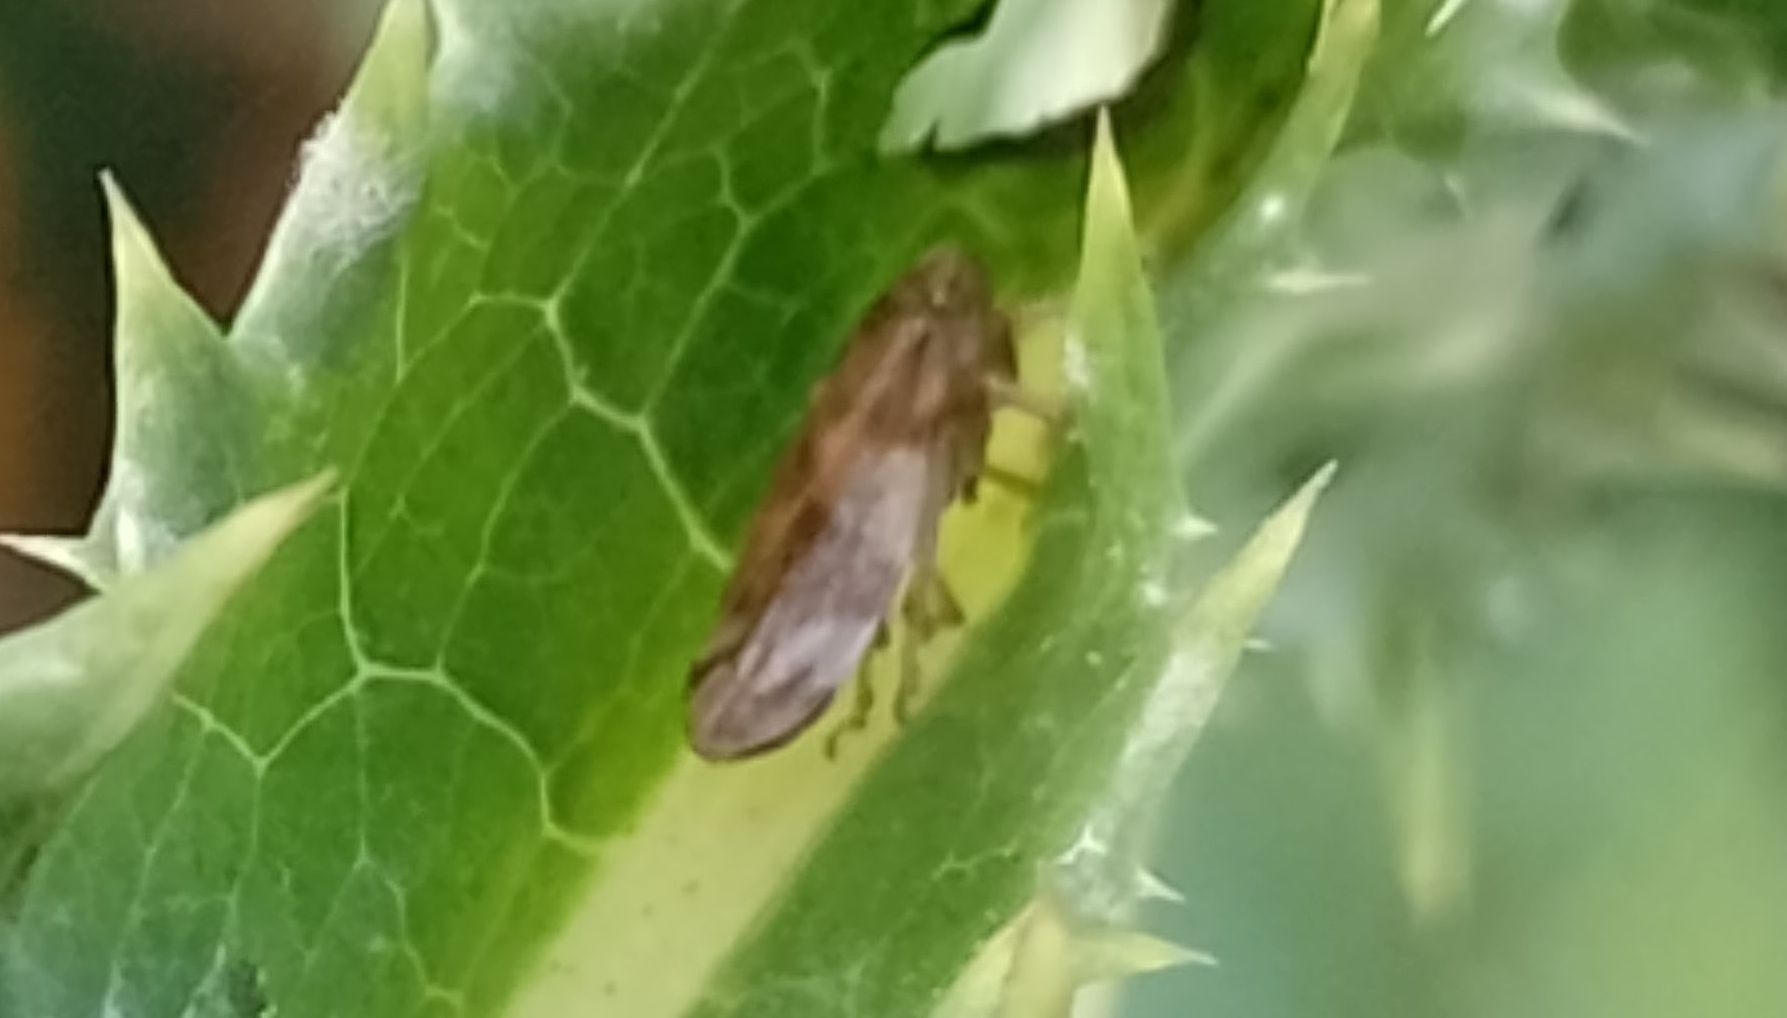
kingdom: Animalia
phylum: Arthropoda
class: Insecta
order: Hemiptera
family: Aphrophoridae
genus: Philaenus
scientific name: Philaenus spumarius
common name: Meadow spittlebug
